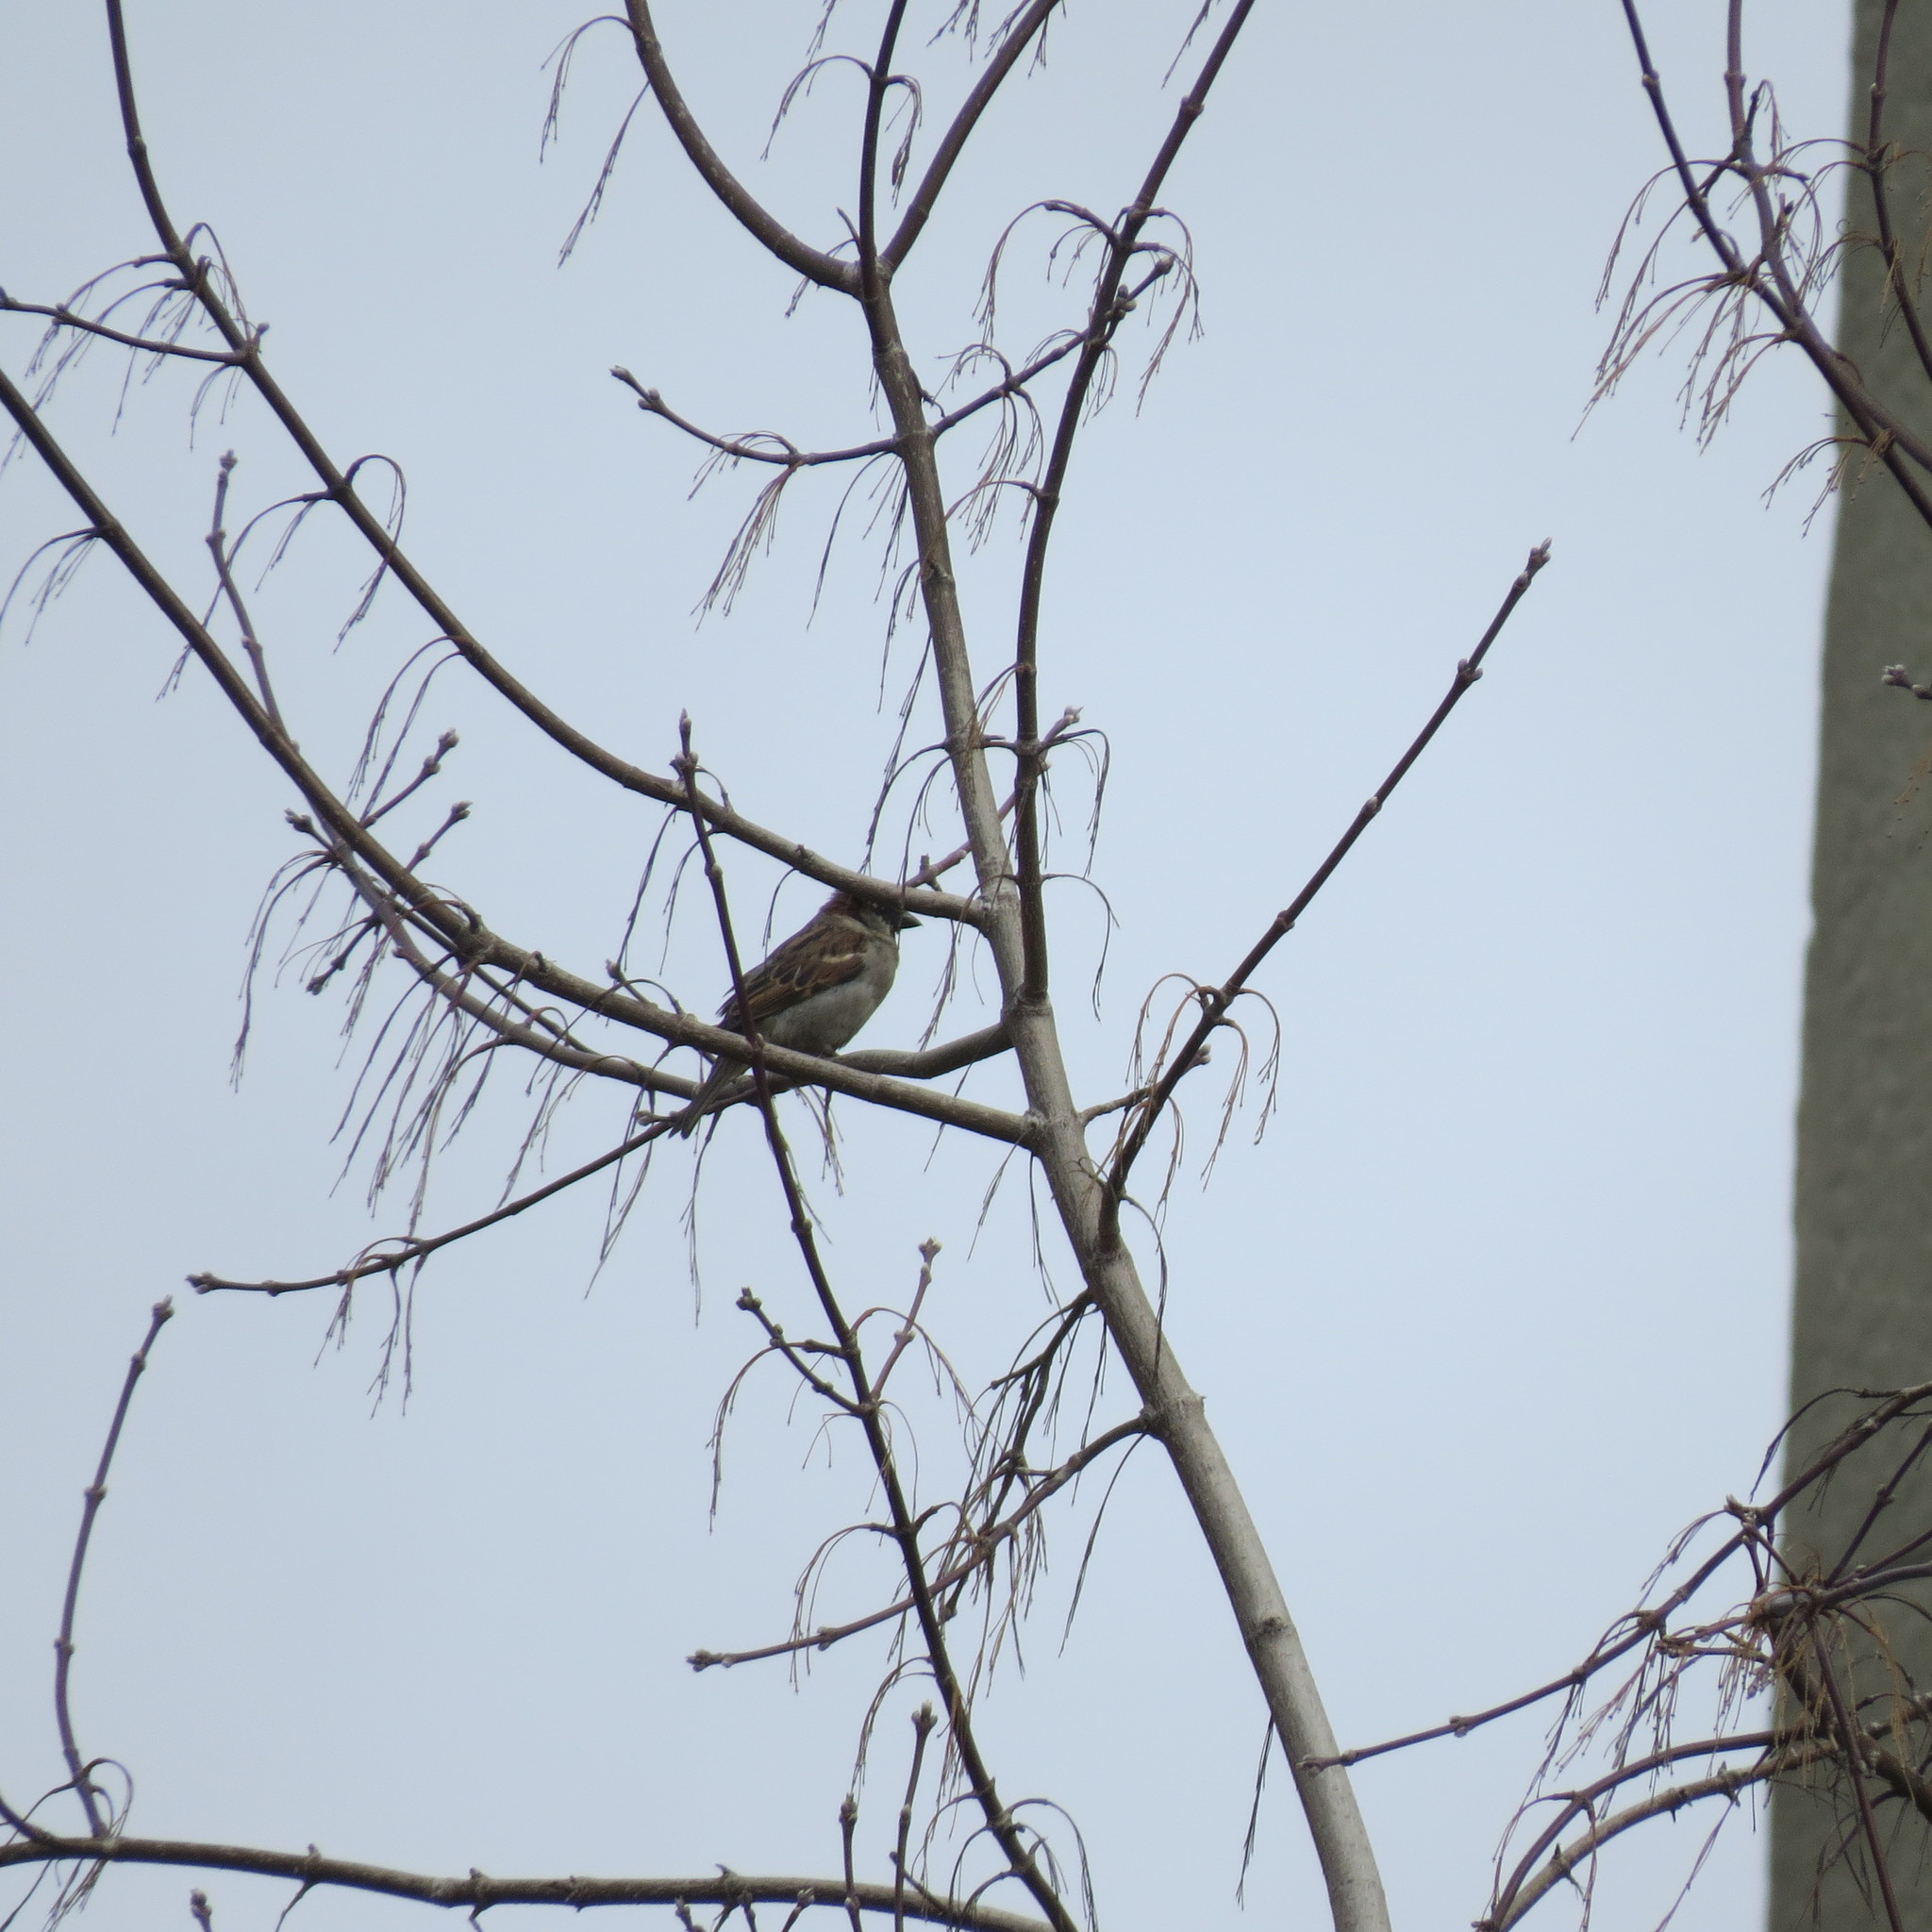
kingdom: Animalia
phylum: Chordata
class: Aves
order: Passeriformes
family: Passeridae
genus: Passer
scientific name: Passer domesticus
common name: House sparrow
